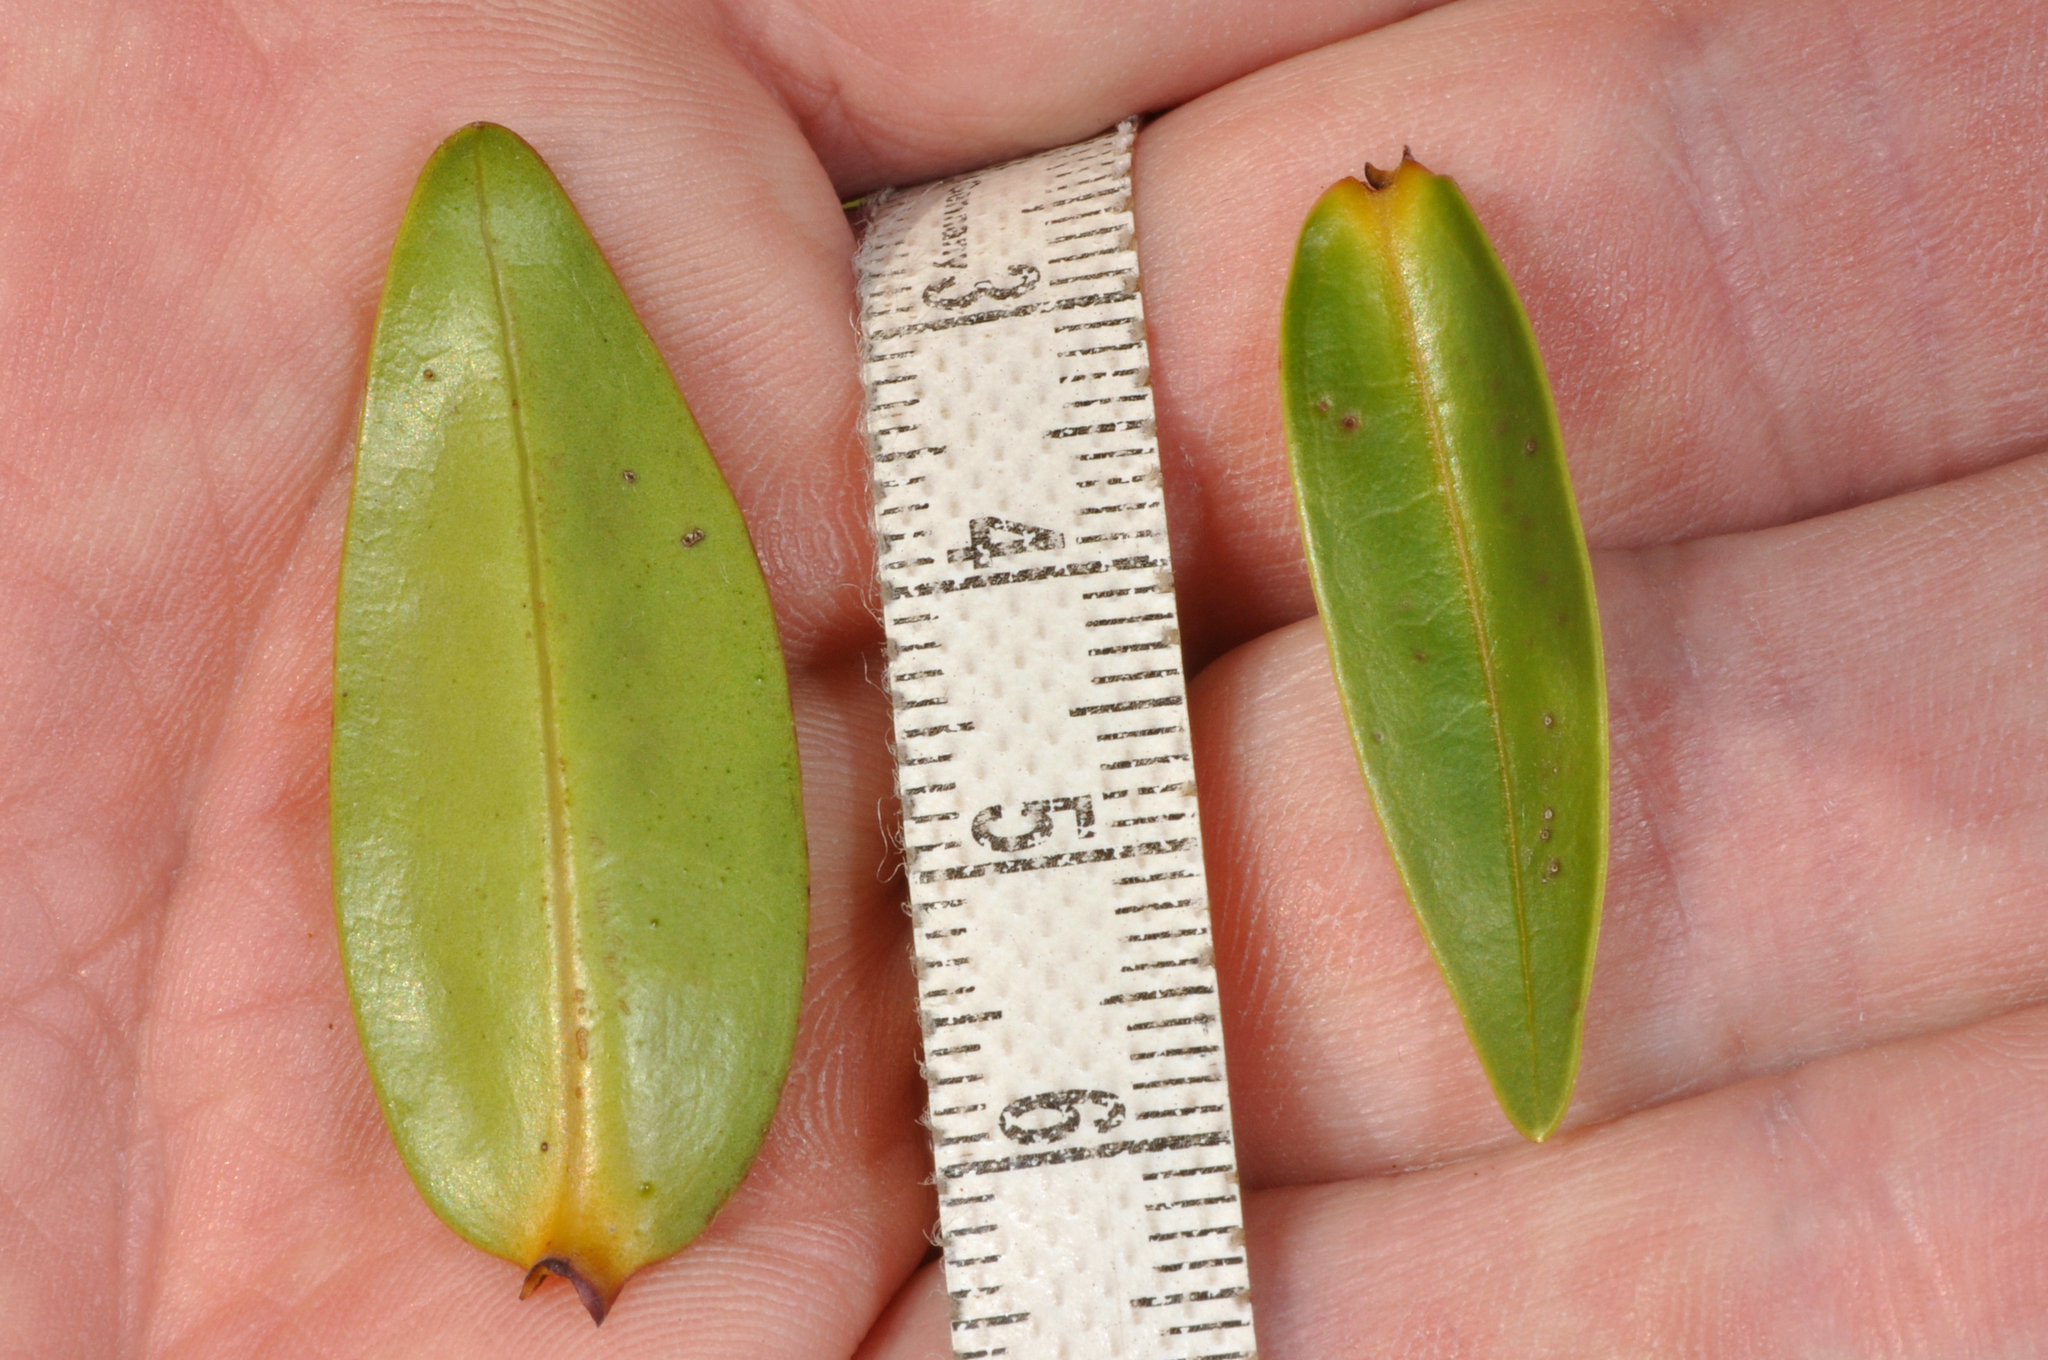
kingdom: Plantae
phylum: Tracheophyta
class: Magnoliopsida
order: Lamiales
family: Plantaginaceae
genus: Veronica
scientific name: Veronica ligustrifolia
